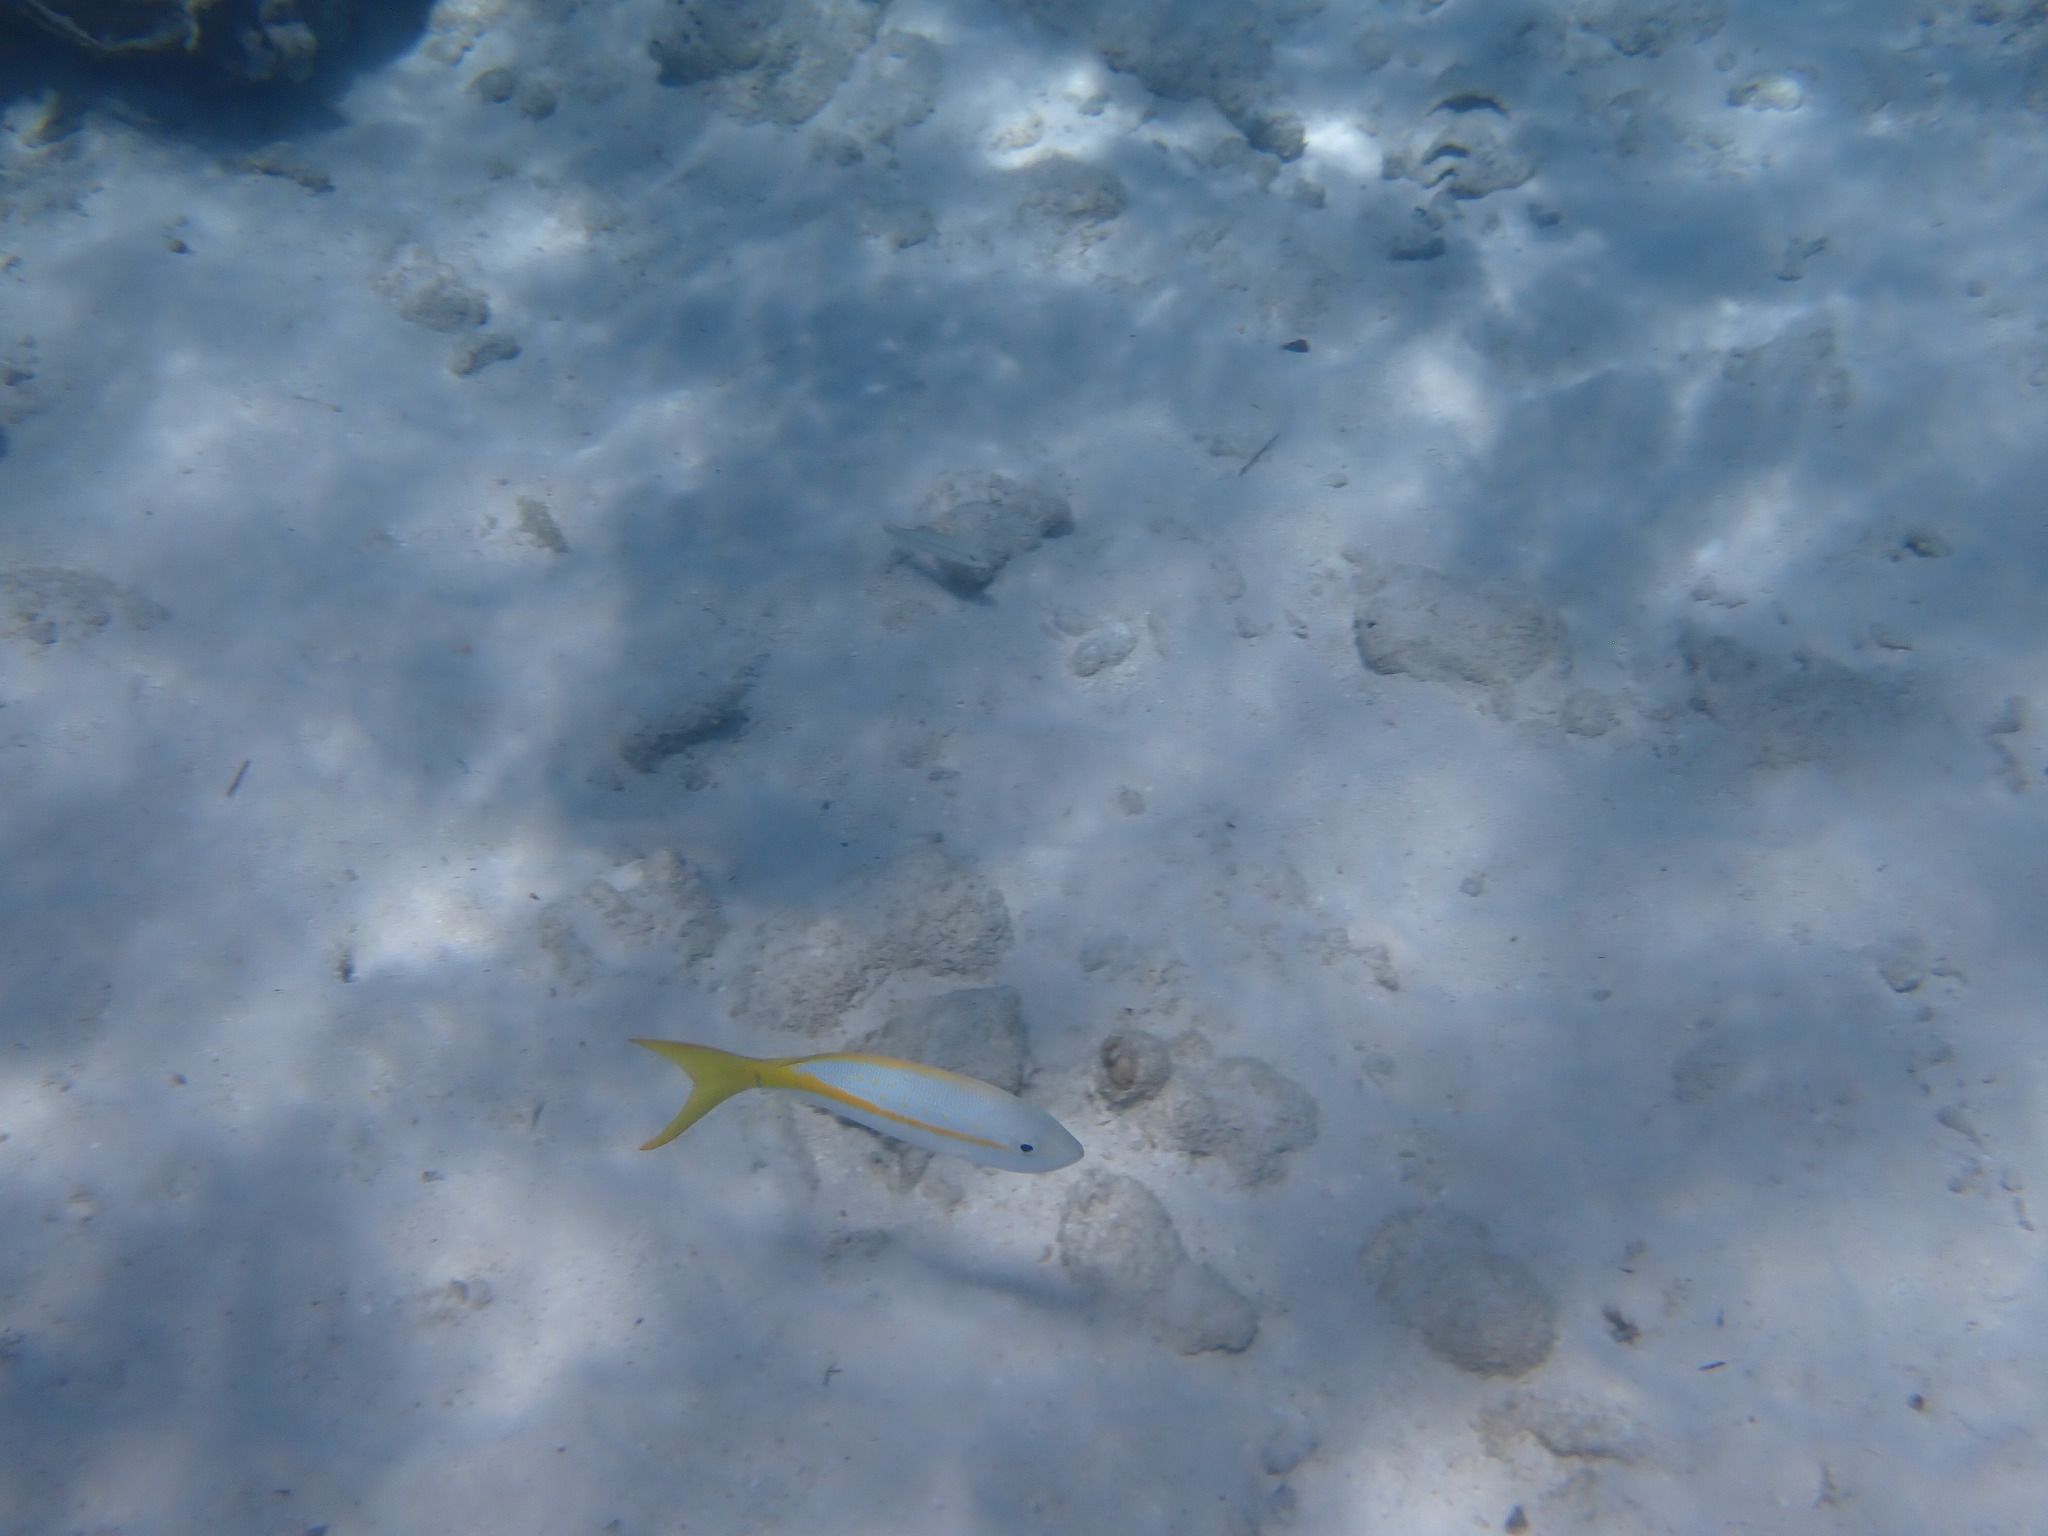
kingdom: Animalia
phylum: Chordata
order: Perciformes
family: Lutjanidae
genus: Ocyurus
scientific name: Ocyurus chrysurus
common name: Yellowtail snapper
